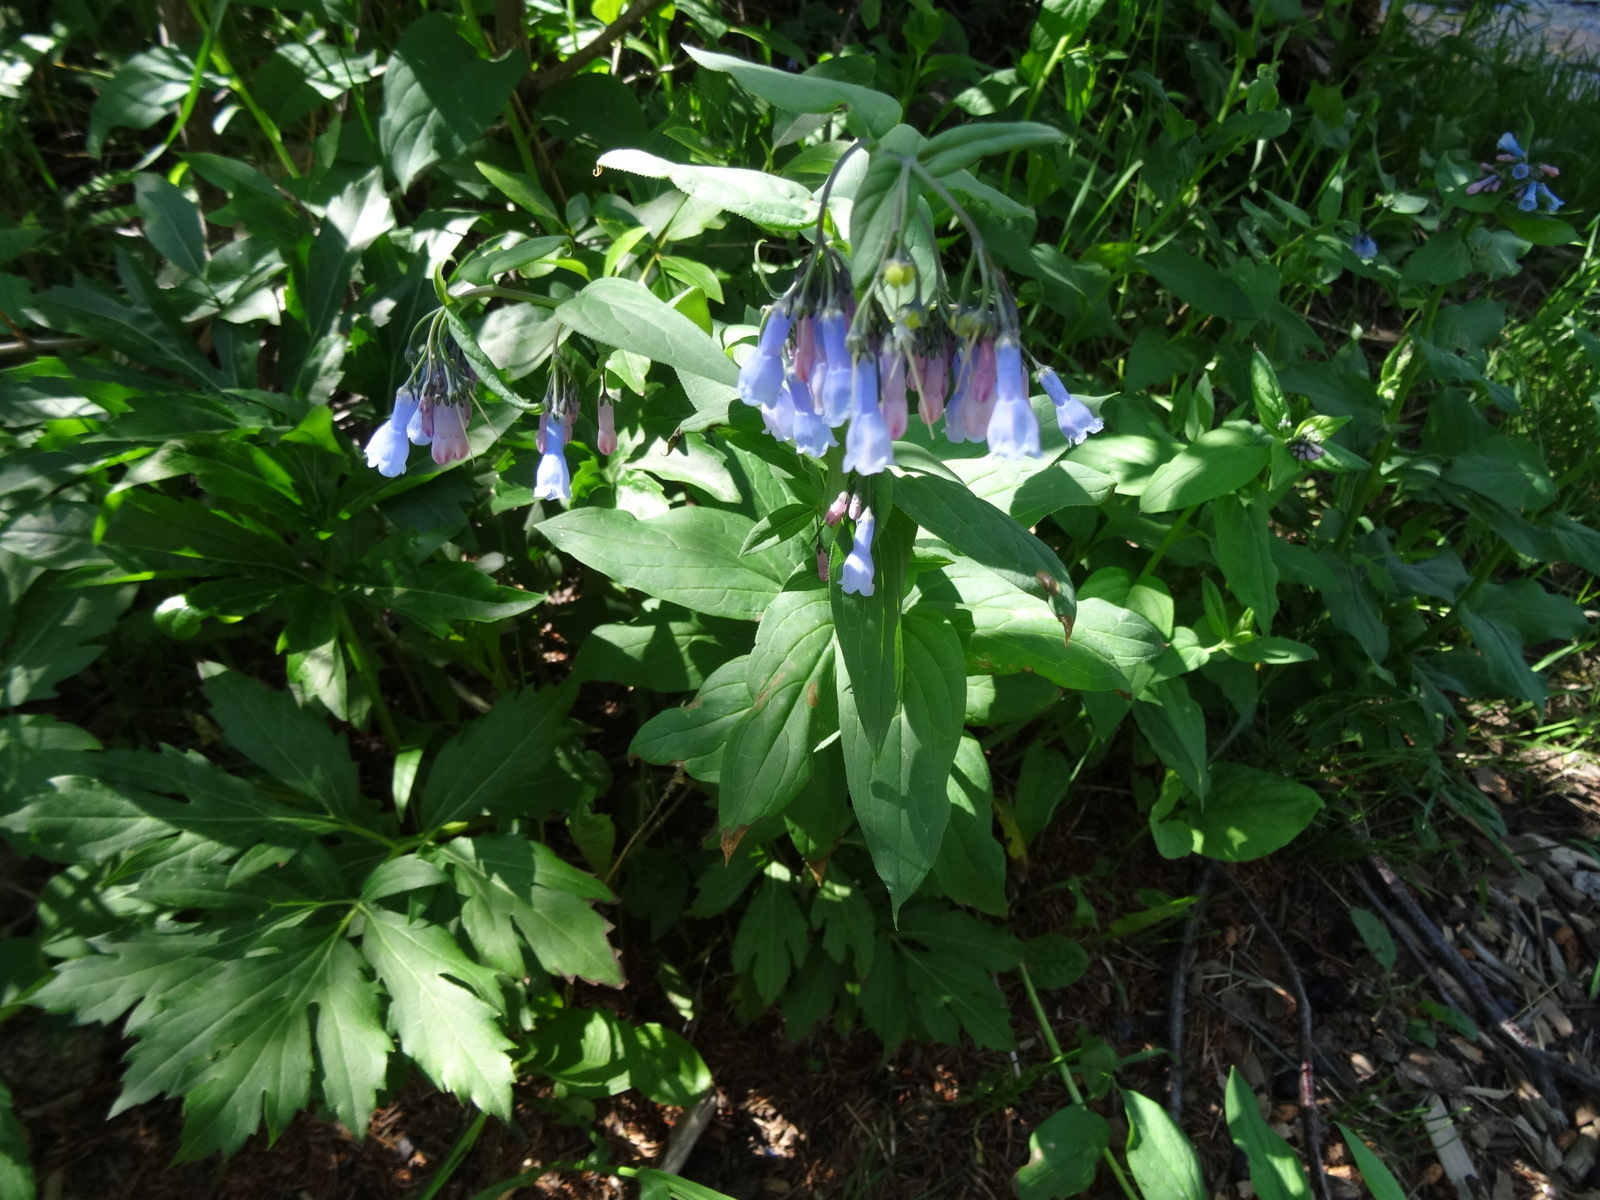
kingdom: Plantae
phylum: Tracheophyta
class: Magnoliopsida
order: Boraginales
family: Boraginaceae
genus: Mertensia
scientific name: Mertensia ciliata
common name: Tall chiming-bells
